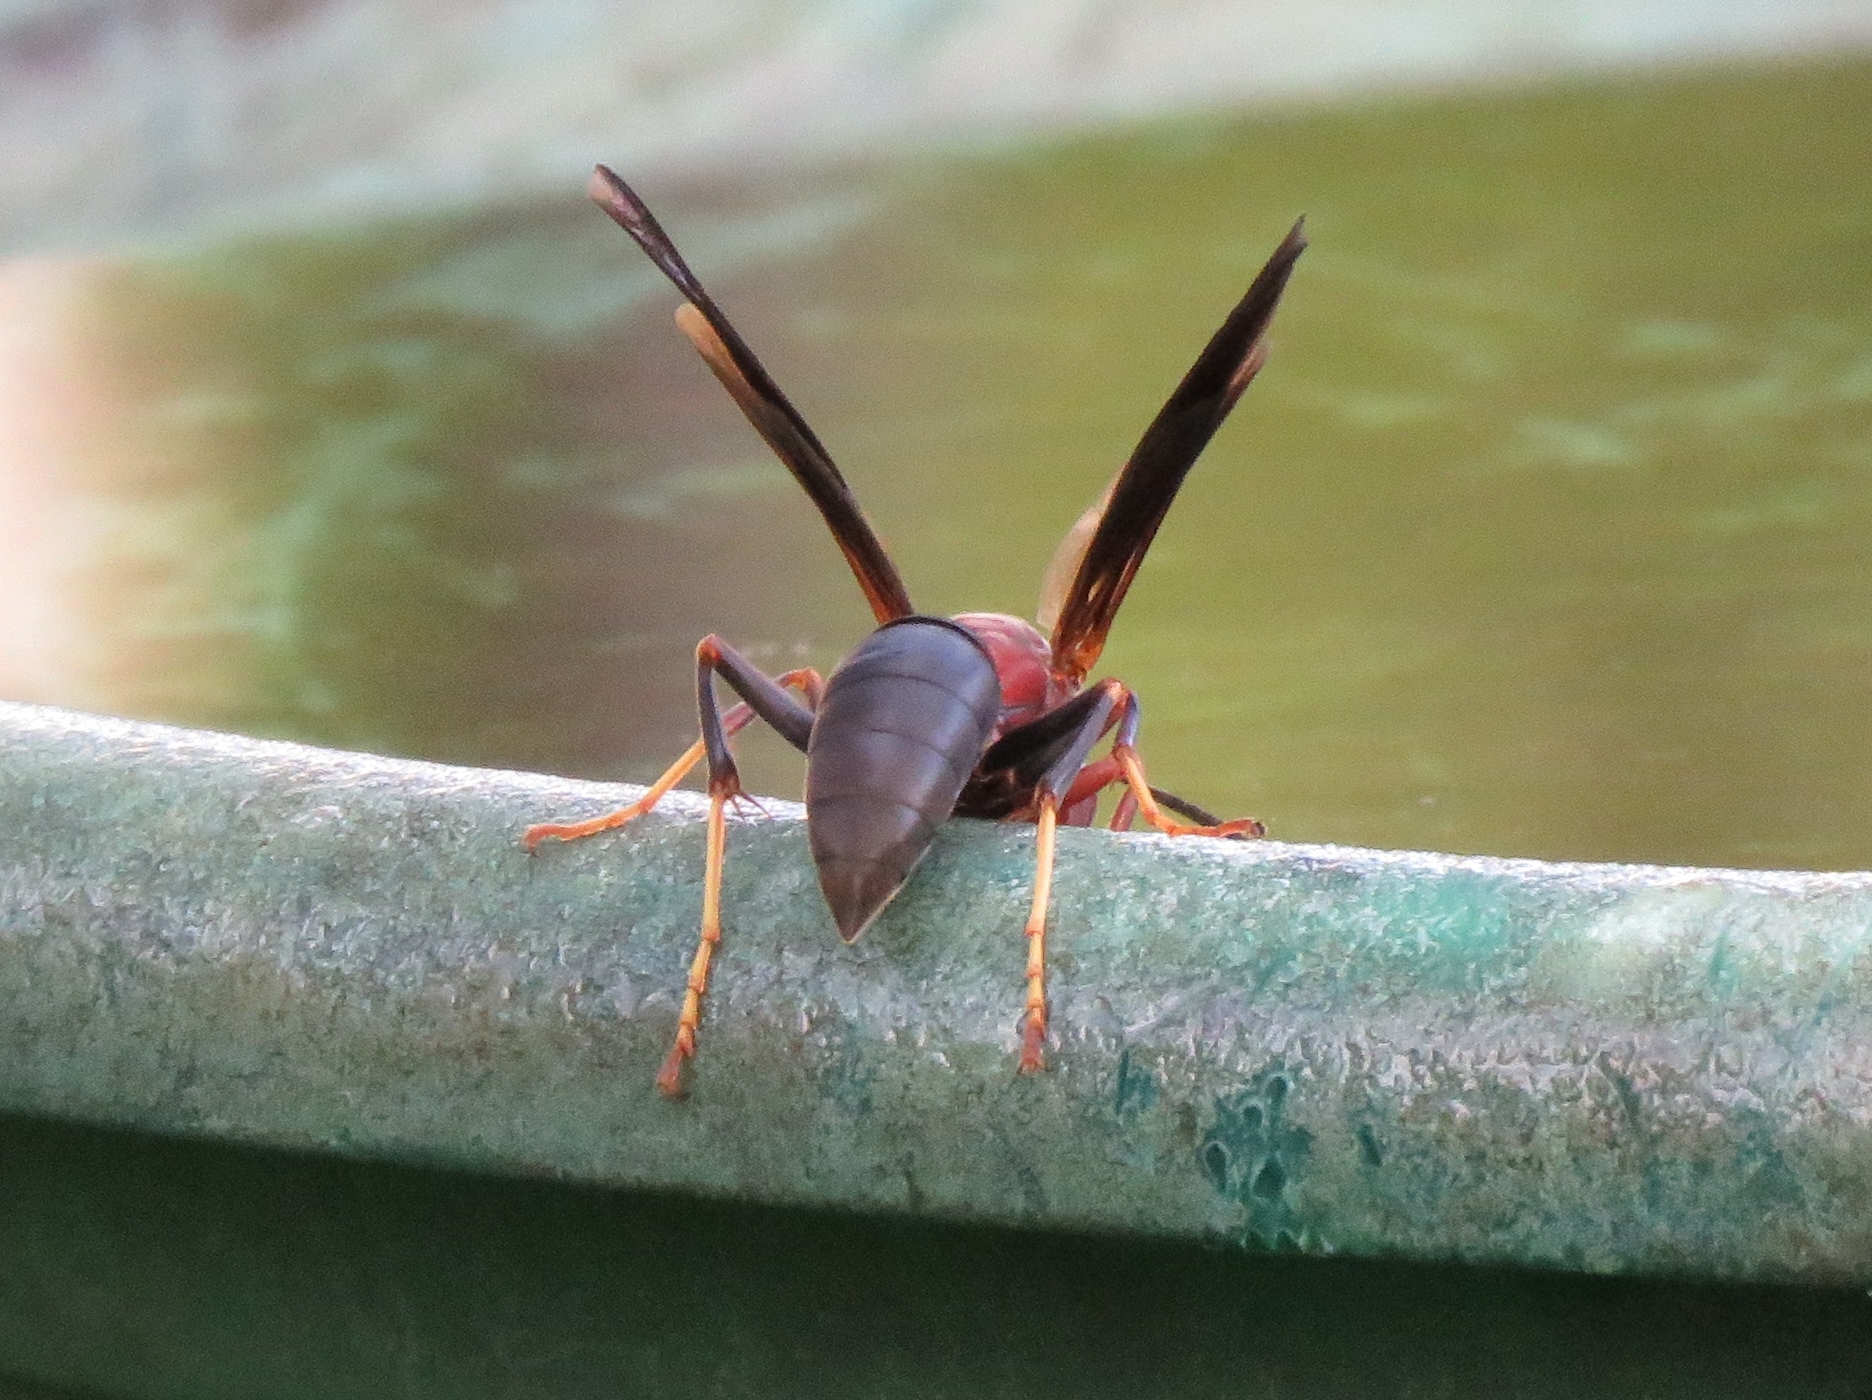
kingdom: Animalia
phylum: Arthropoda
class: Insecta
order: Hymenoptera
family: Eumenidae
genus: Polistes
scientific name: Polistes metricus
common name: Metric paper wasp
